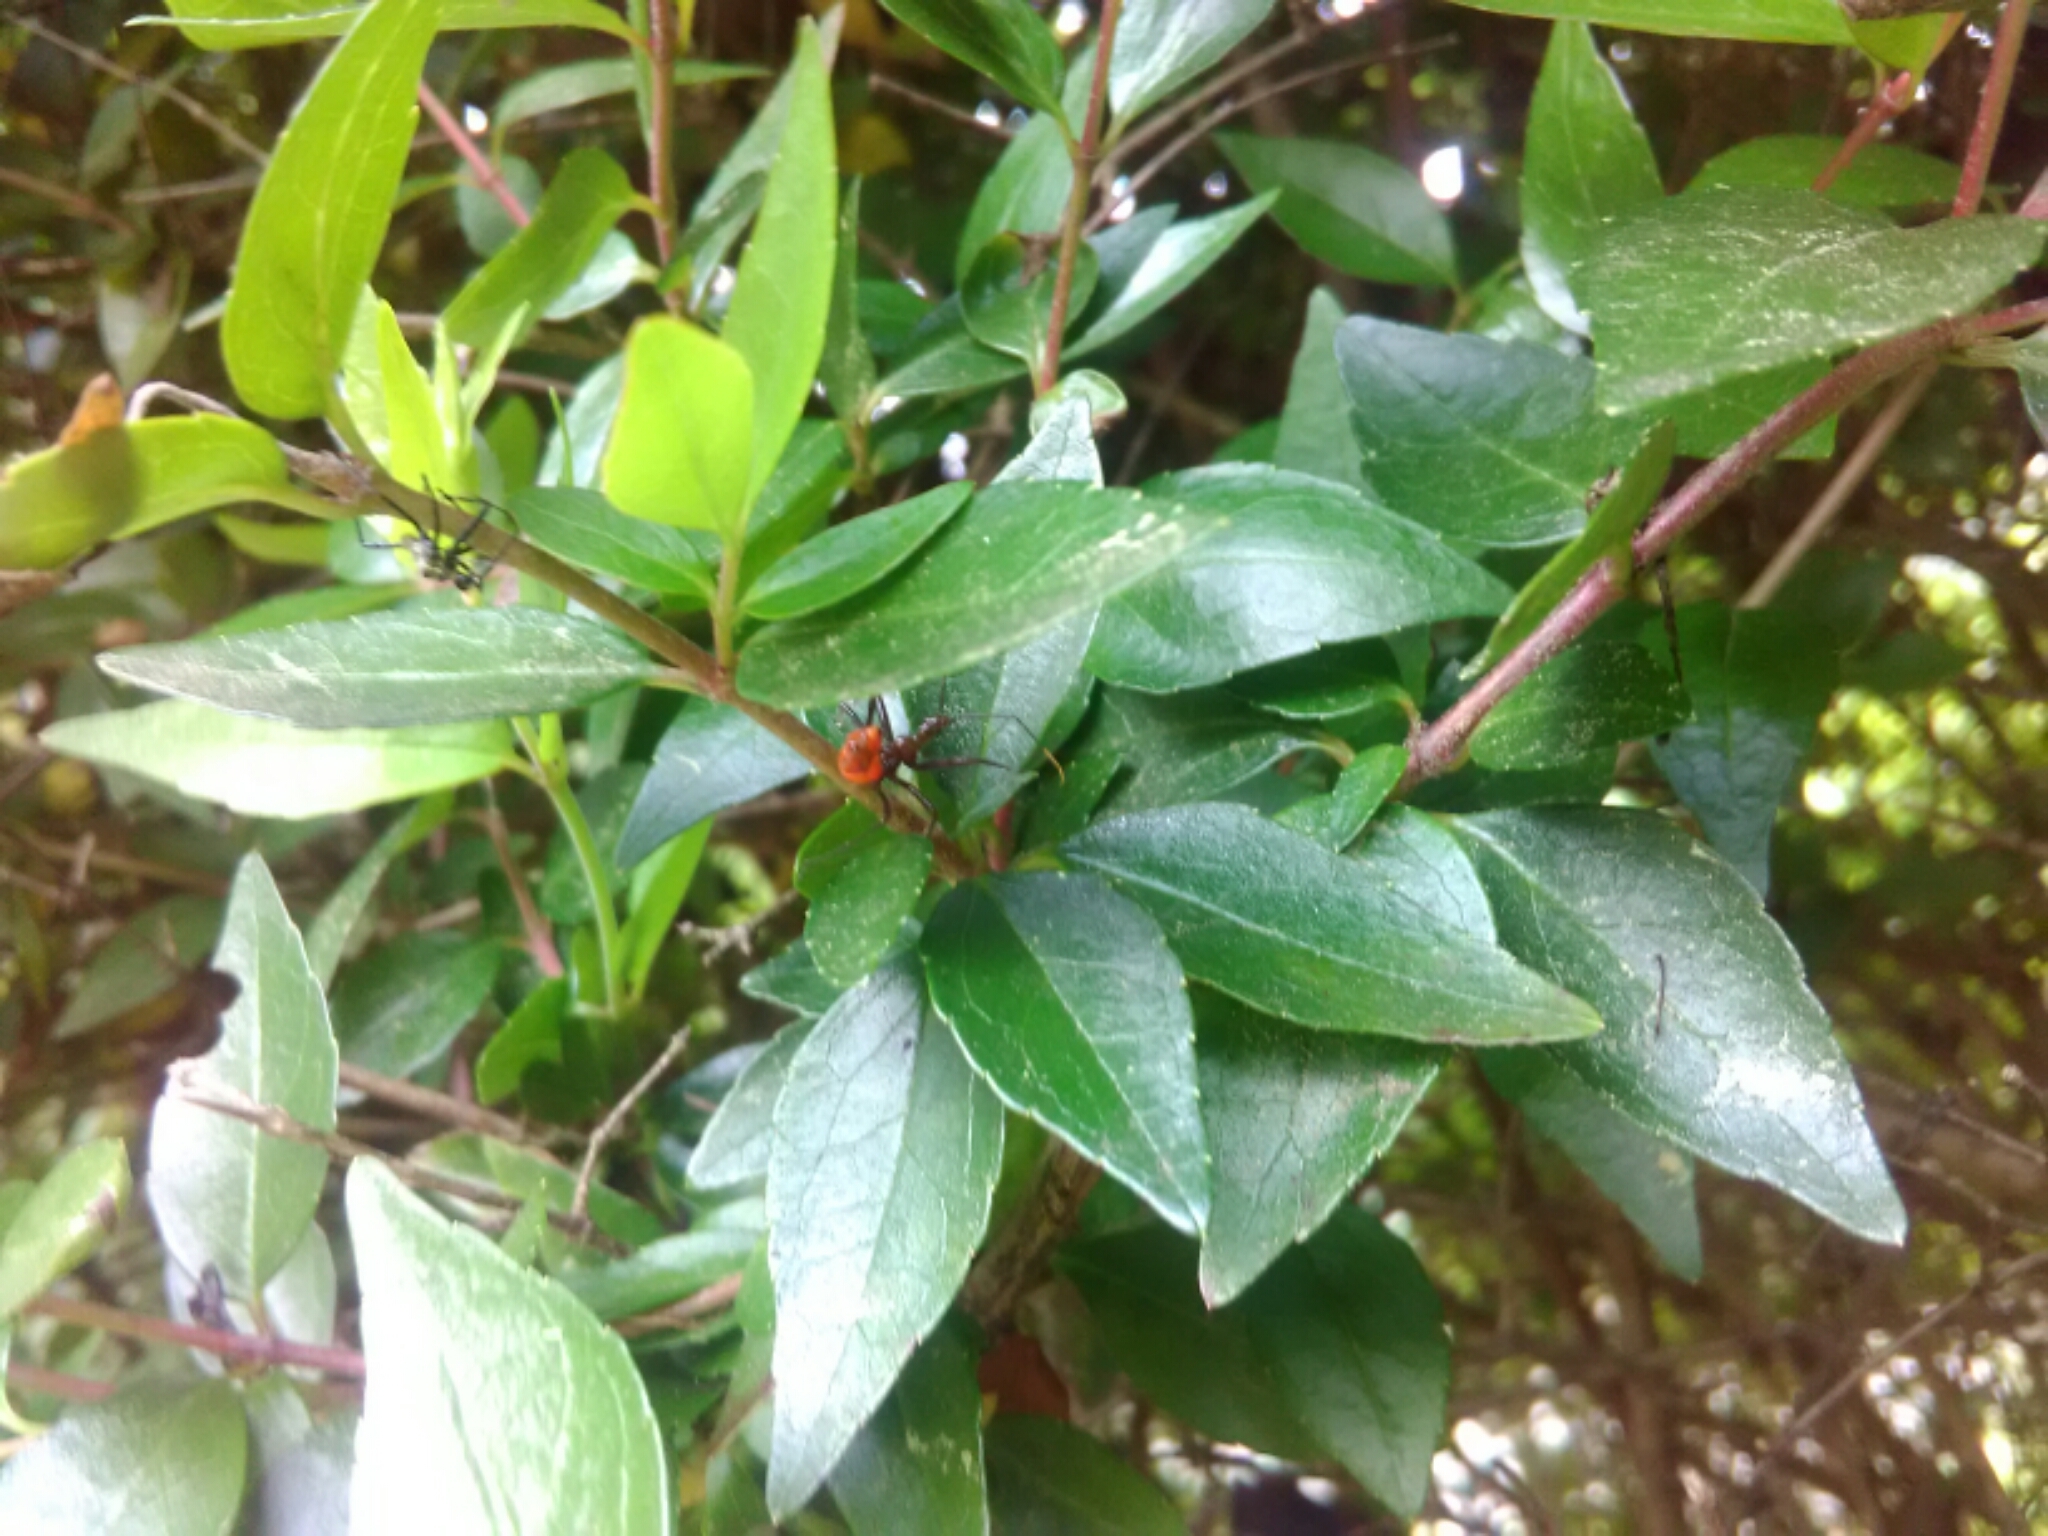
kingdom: Animalia
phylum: Arthropoda
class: Insecta
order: Hemiptera
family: Reduviidae
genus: Arilus
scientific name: Arilus cristatus
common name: North american wheel bug
